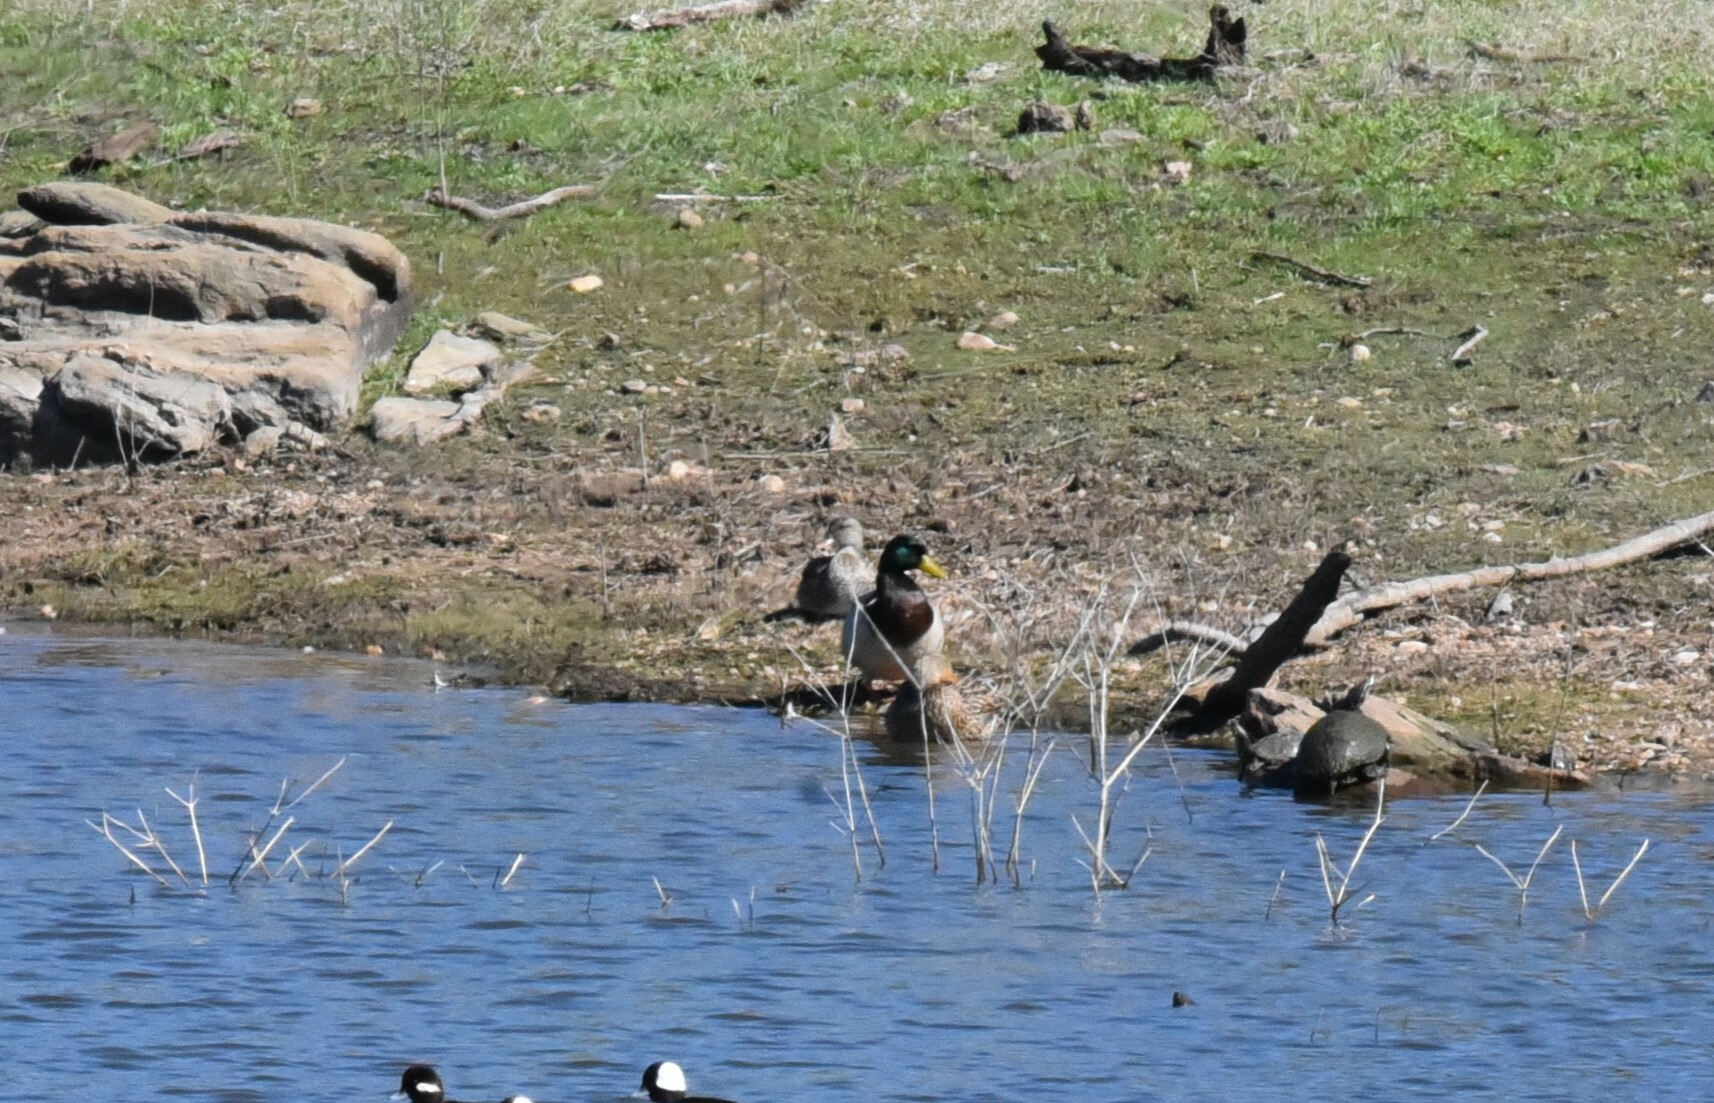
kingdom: Animalia
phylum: Chordata
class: Aves
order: Anseriformes
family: Anatidae
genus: Anas
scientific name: Anas platyrhynchos
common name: Mallard
